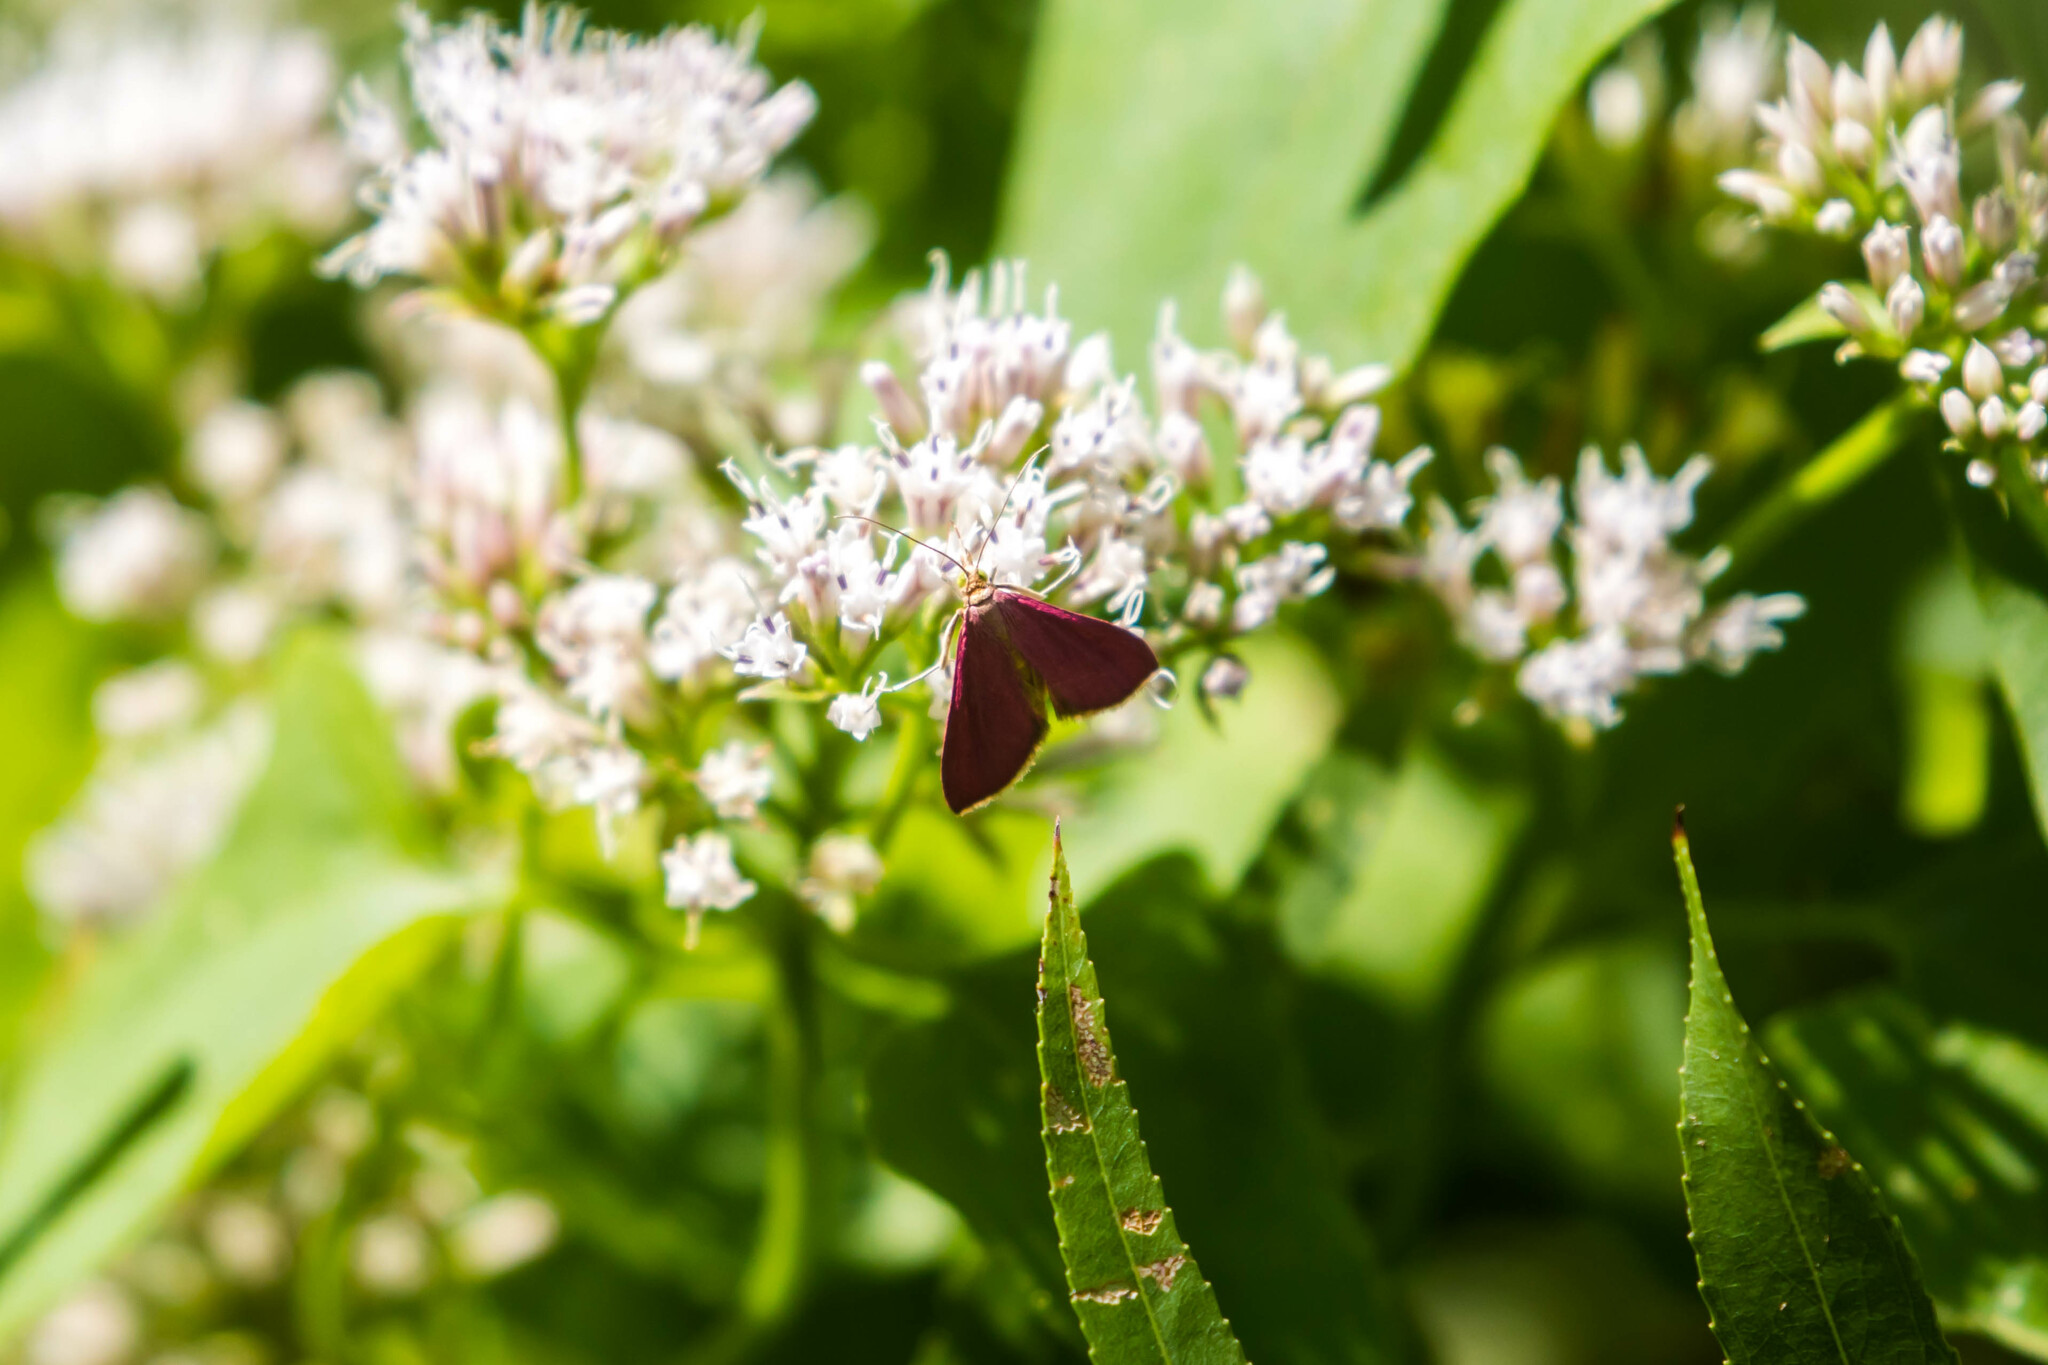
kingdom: Animalia
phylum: Arthropoda
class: Insecta
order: Lepidoptera
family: Crambidae
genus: Pyrausta
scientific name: Pyrausta inornatalis
